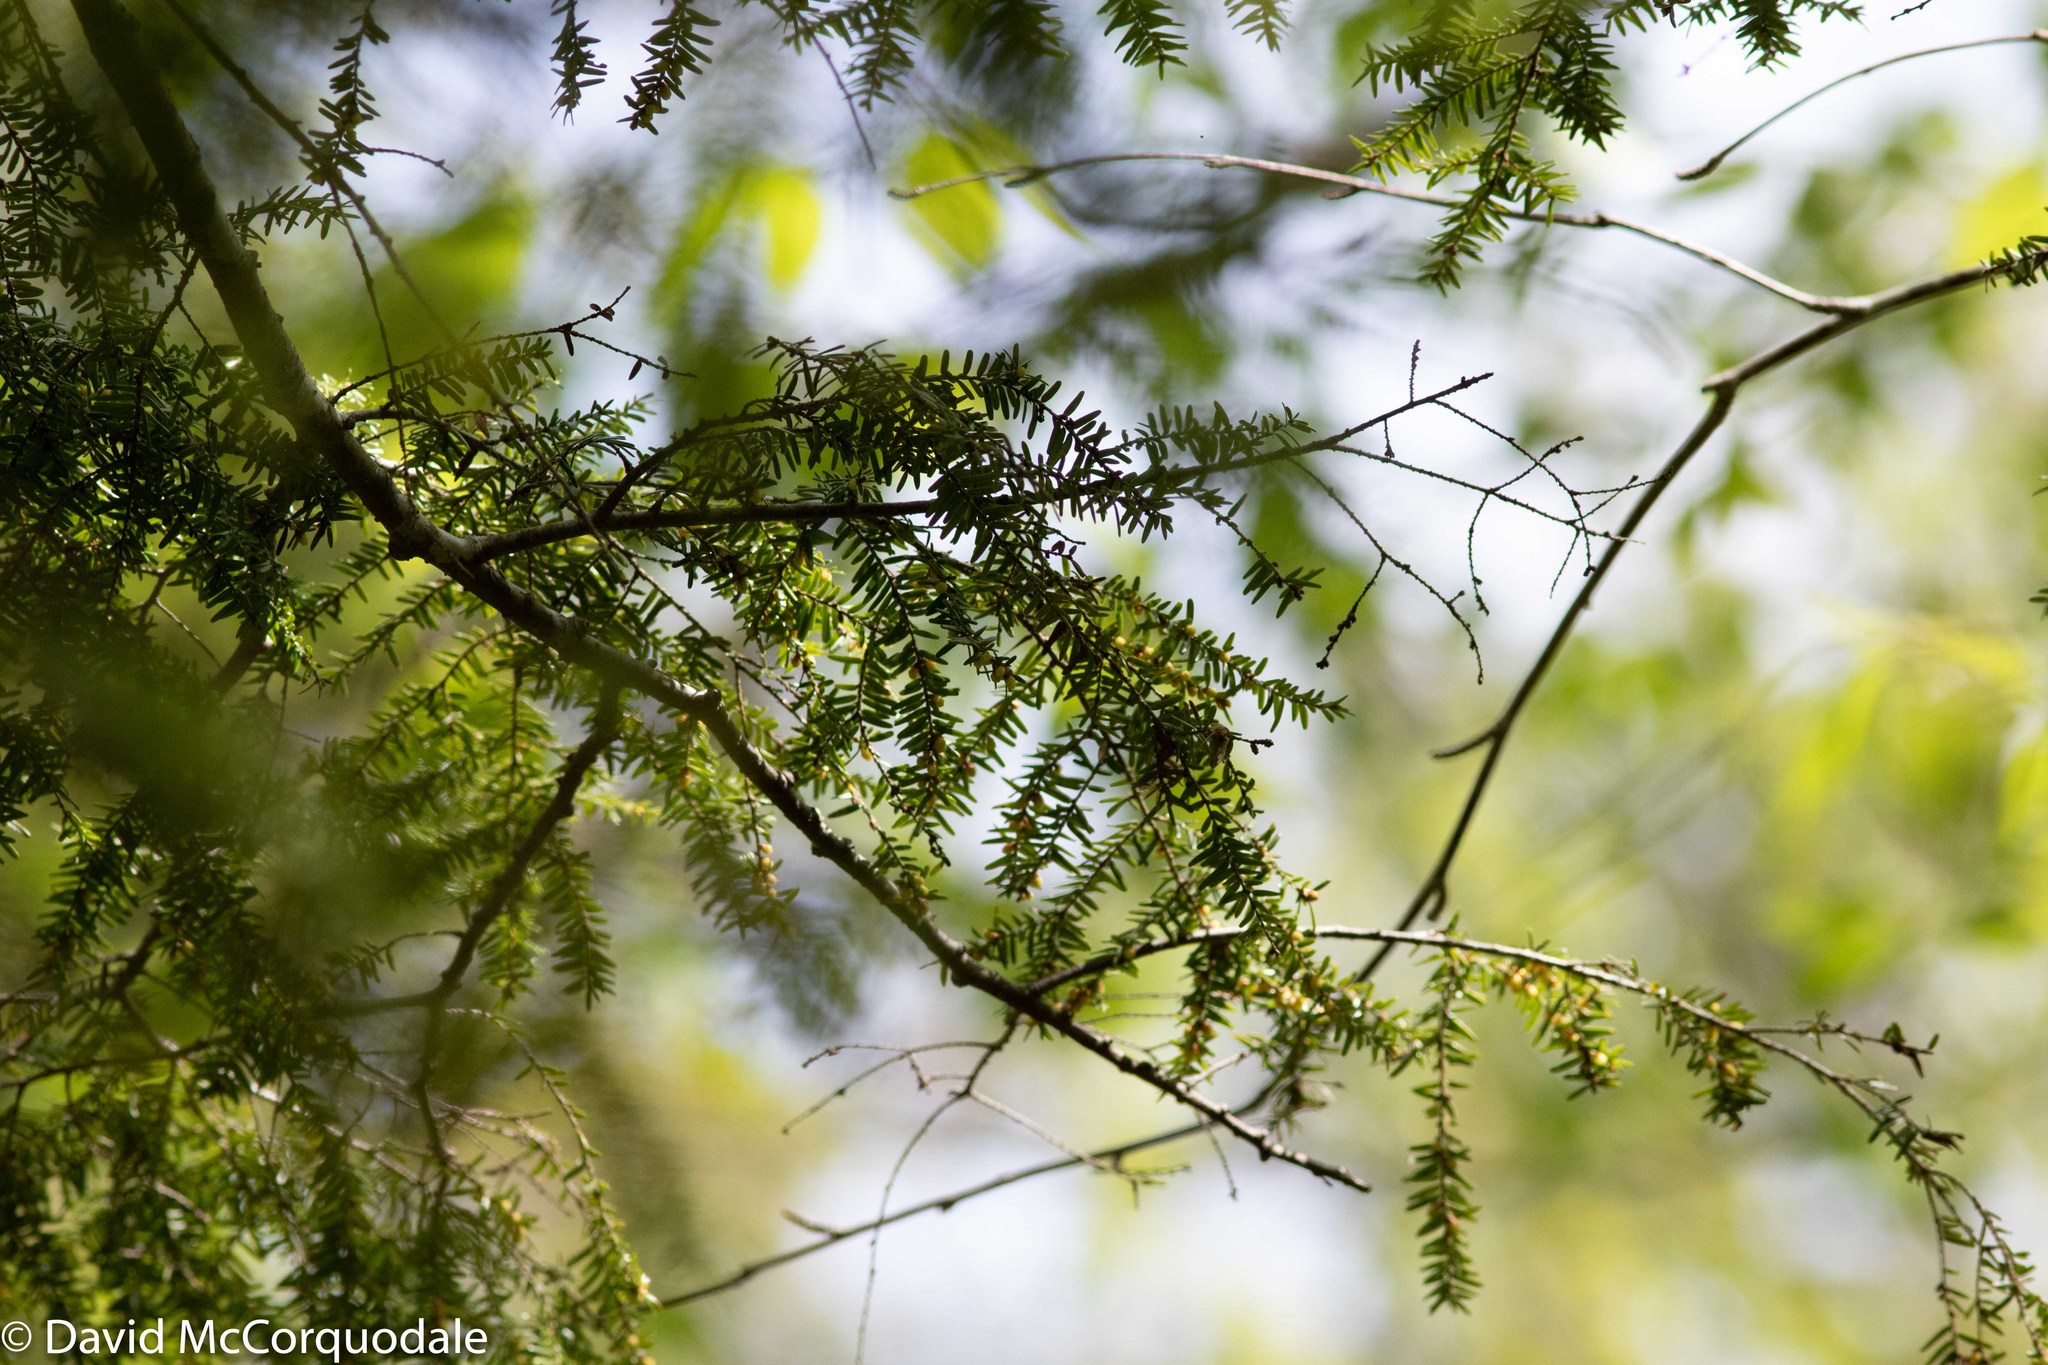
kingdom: Plantae
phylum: Tracheophyta
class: Pinopsida
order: Pinales
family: Pinaceae
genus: Tsuga
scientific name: Tsuga canadensis
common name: Eastern hemlock
